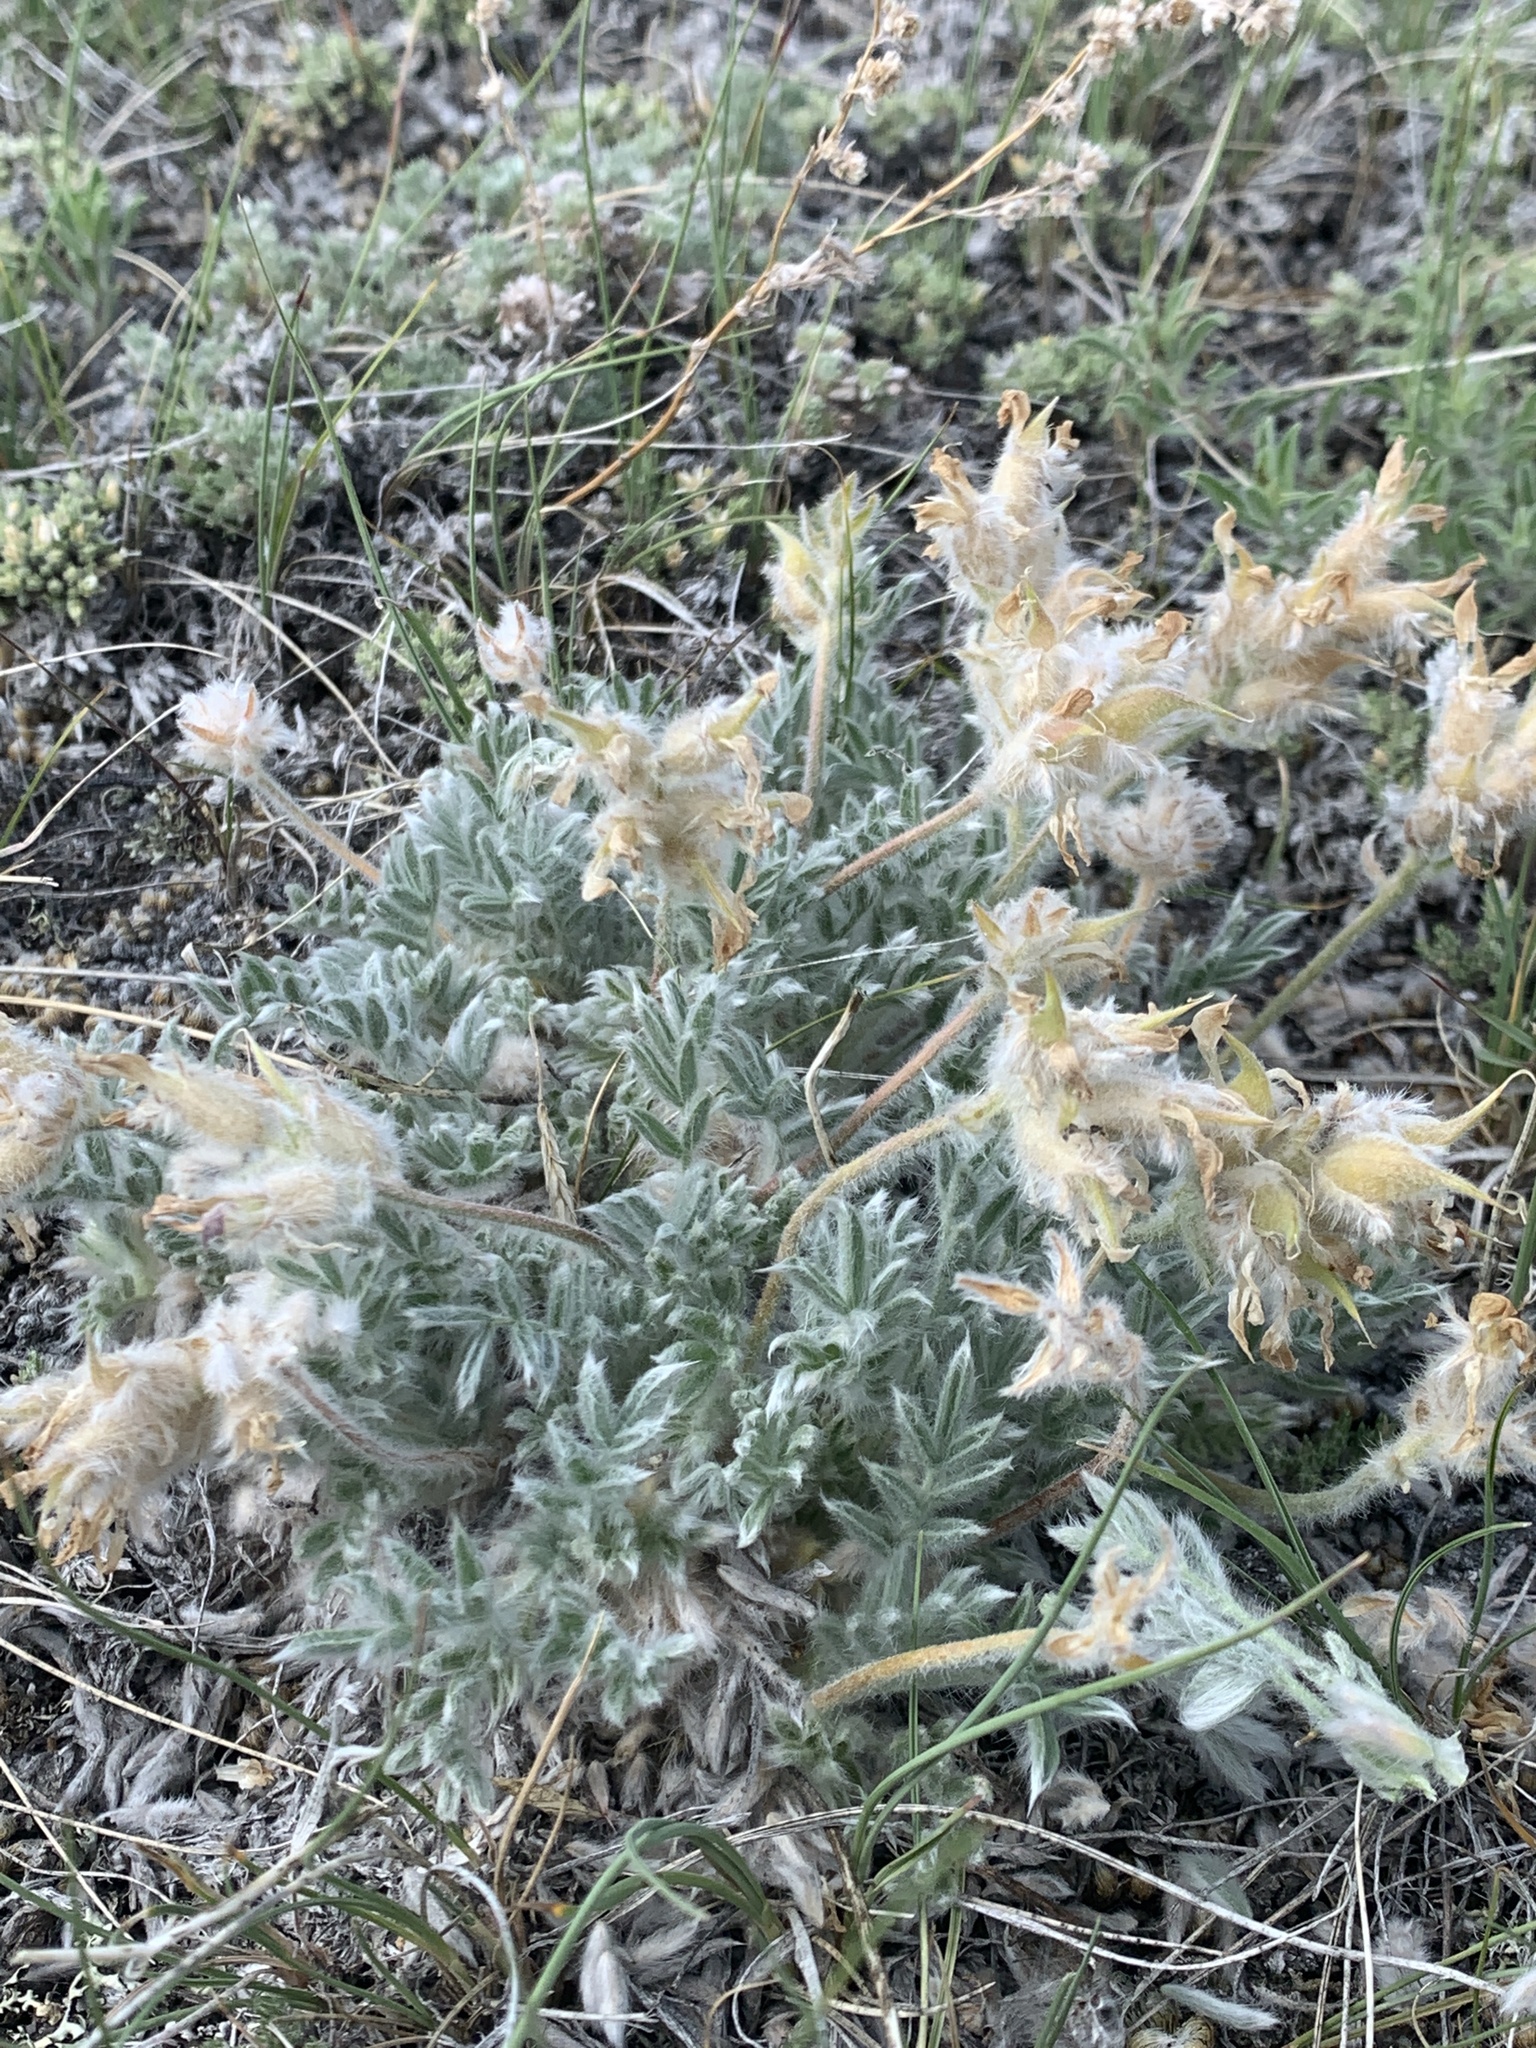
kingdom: Plantae
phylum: Tracheophyta
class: Magnoliopsida
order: Fabales
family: Fabaceae
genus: Oxytropis
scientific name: Oxytropis lagopus
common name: Hare's-foot locoweed
